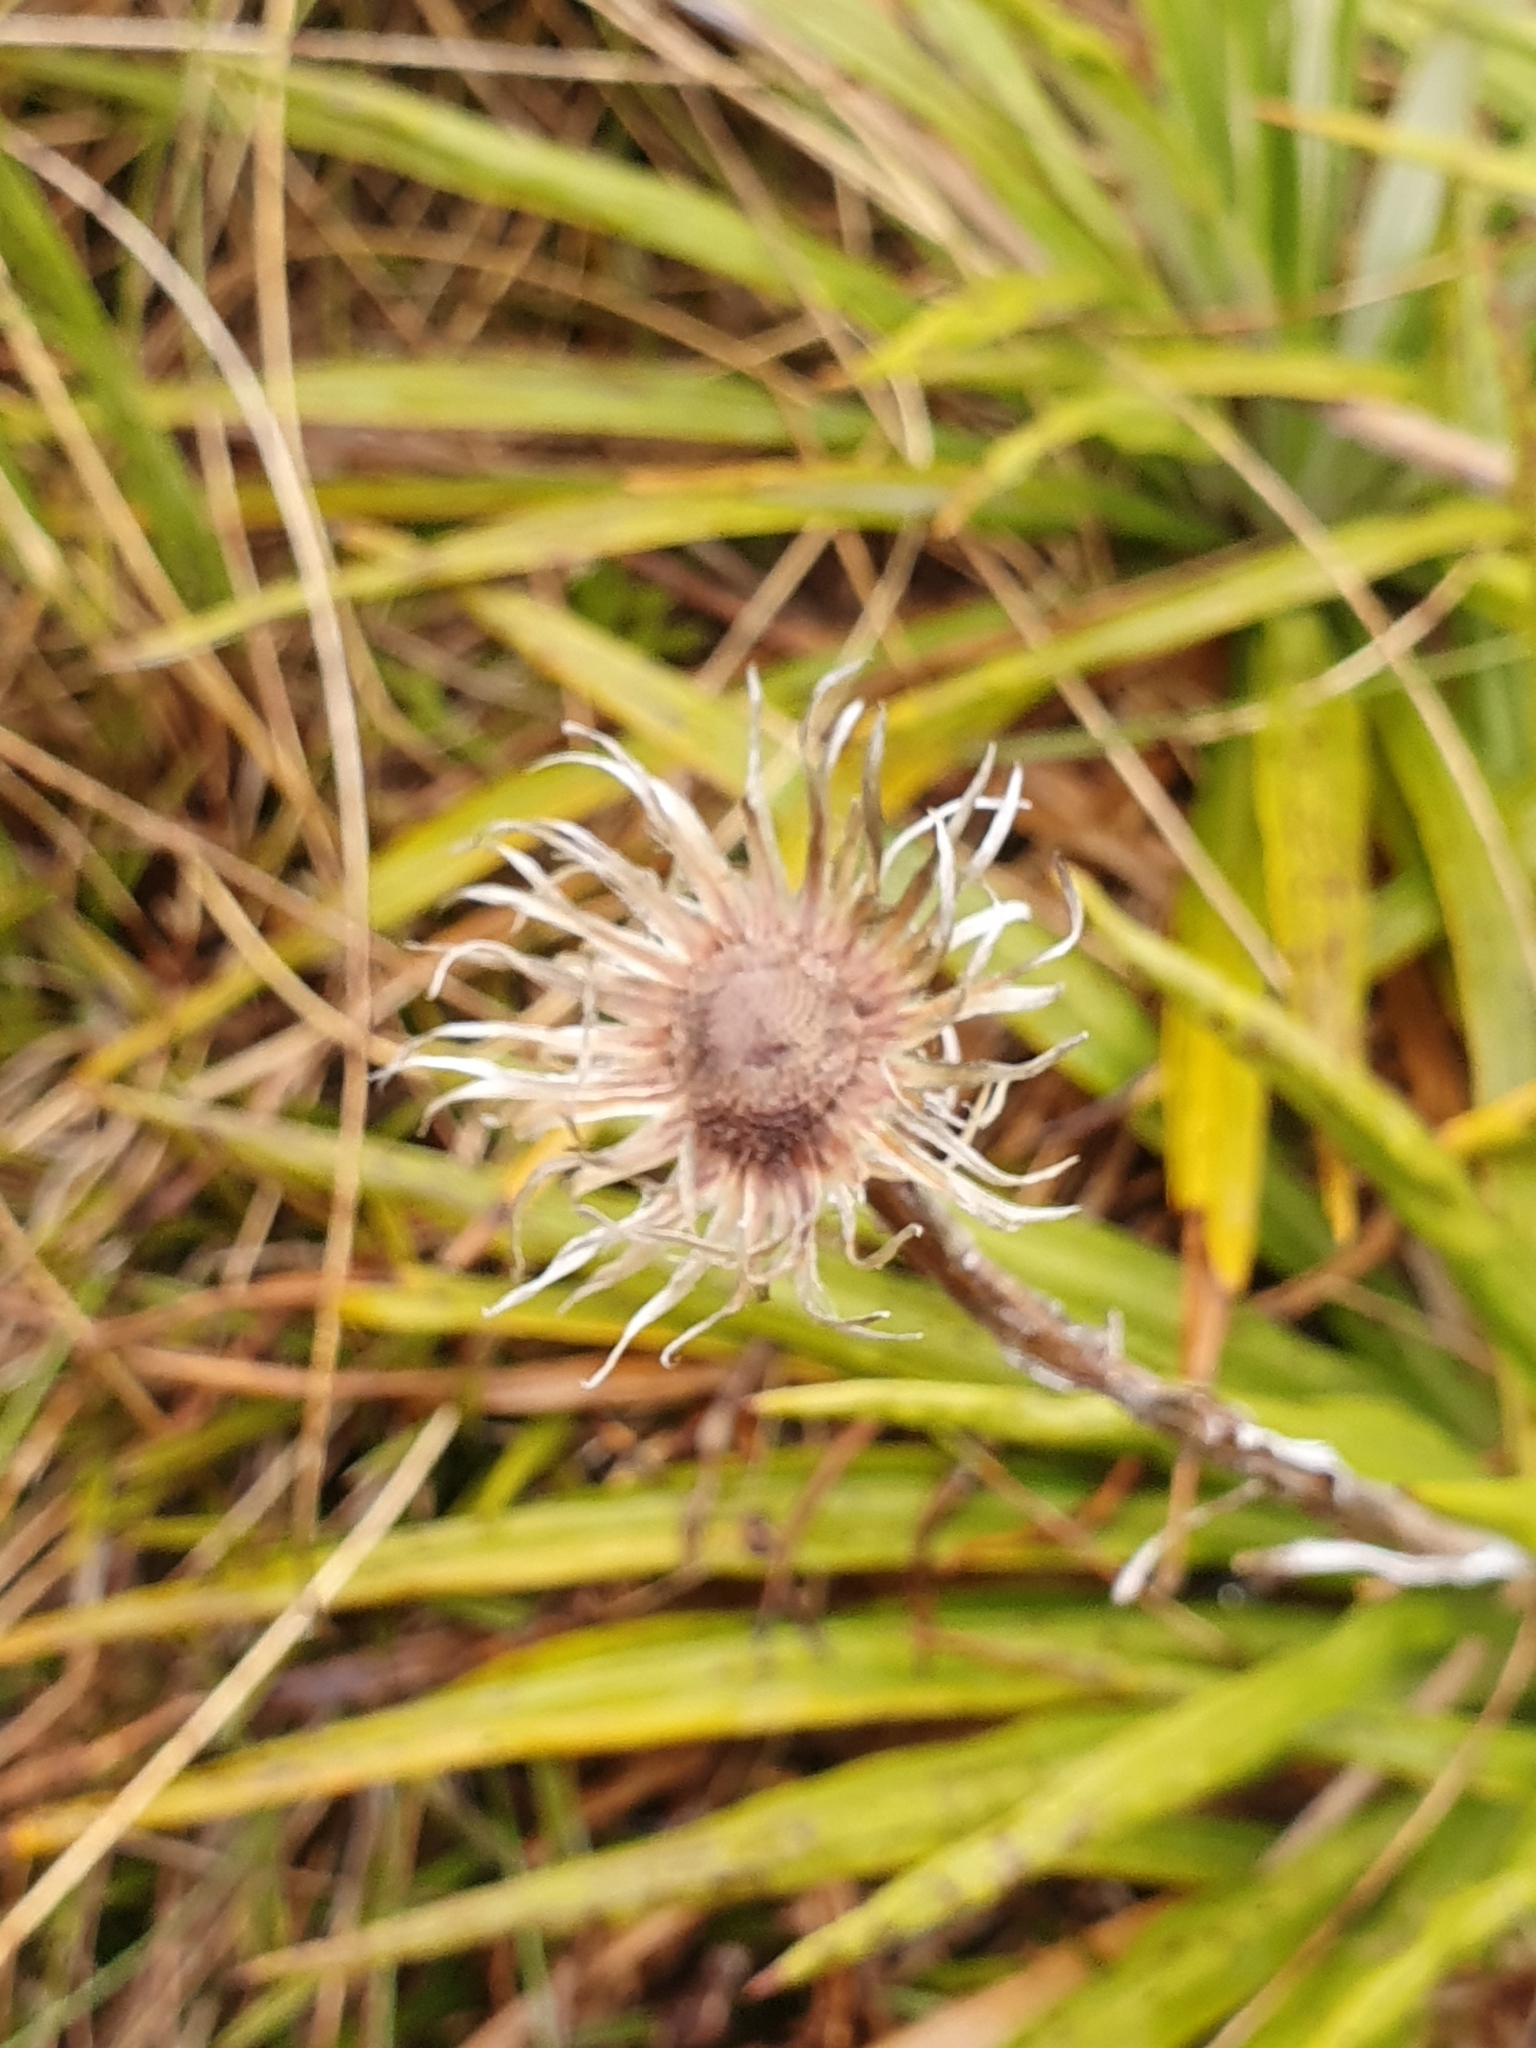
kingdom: Plantae
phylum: Tracheophyta
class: Magnoliopsida
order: Asterales
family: Asteraceae
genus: Celmisia
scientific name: Celmisia petriei
